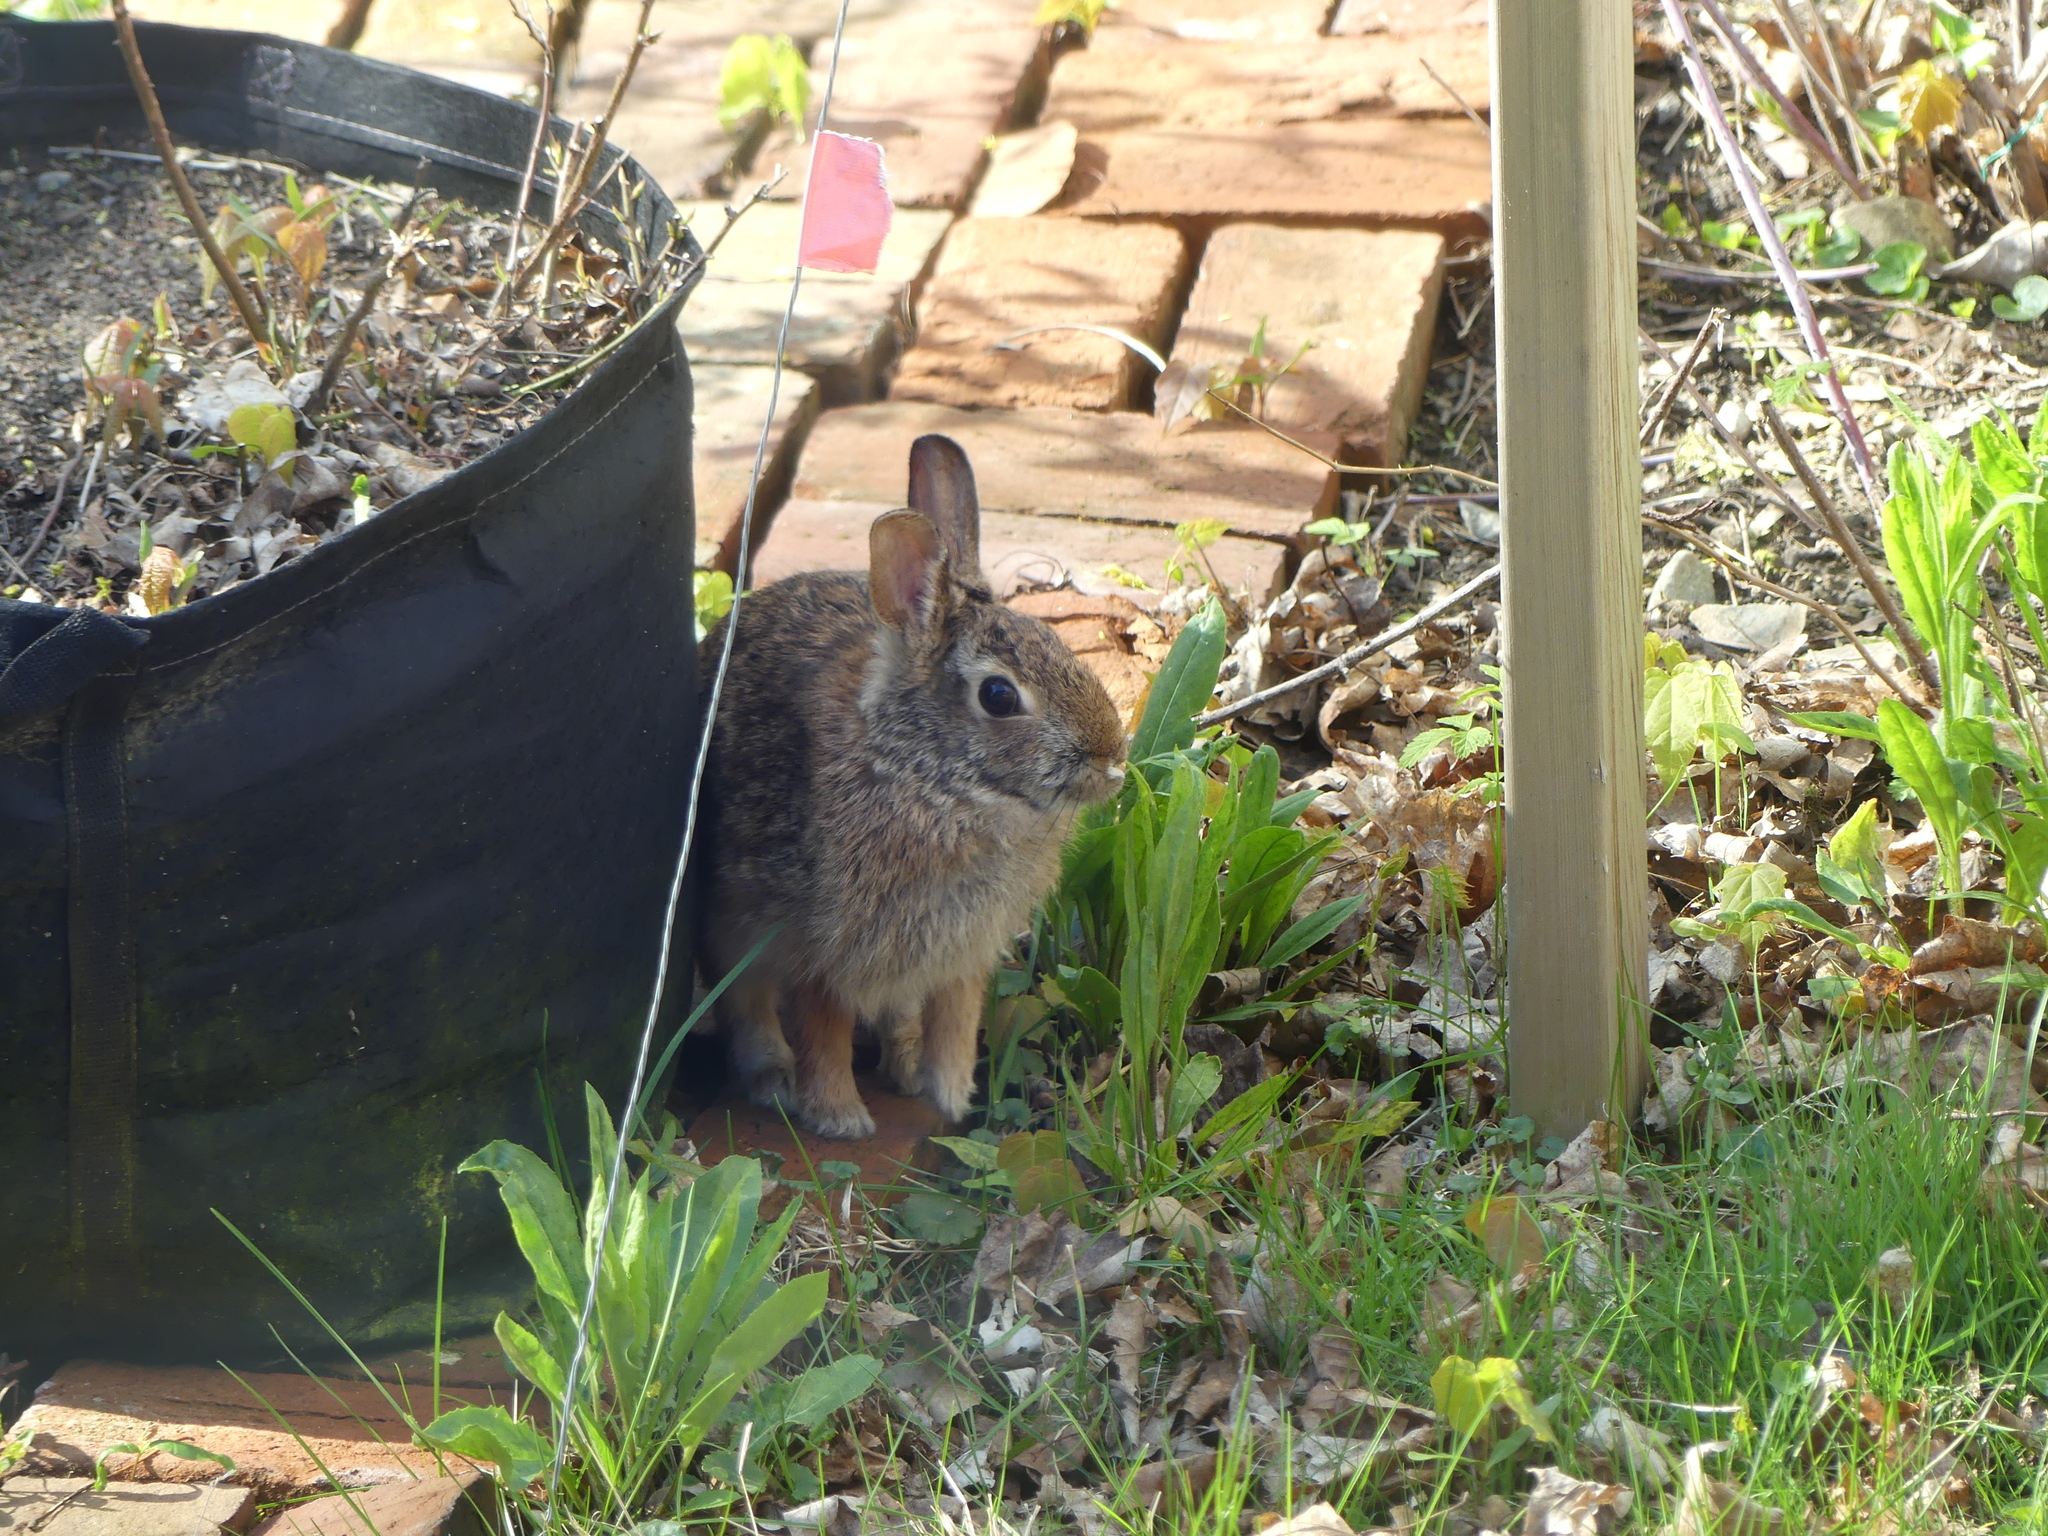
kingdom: Animalia
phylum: Chordata
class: Mammalia
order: Lagomorpha
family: Leporidae
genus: Sylvilagus
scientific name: Sylvilagus floridanus
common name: Eastern cottontail
